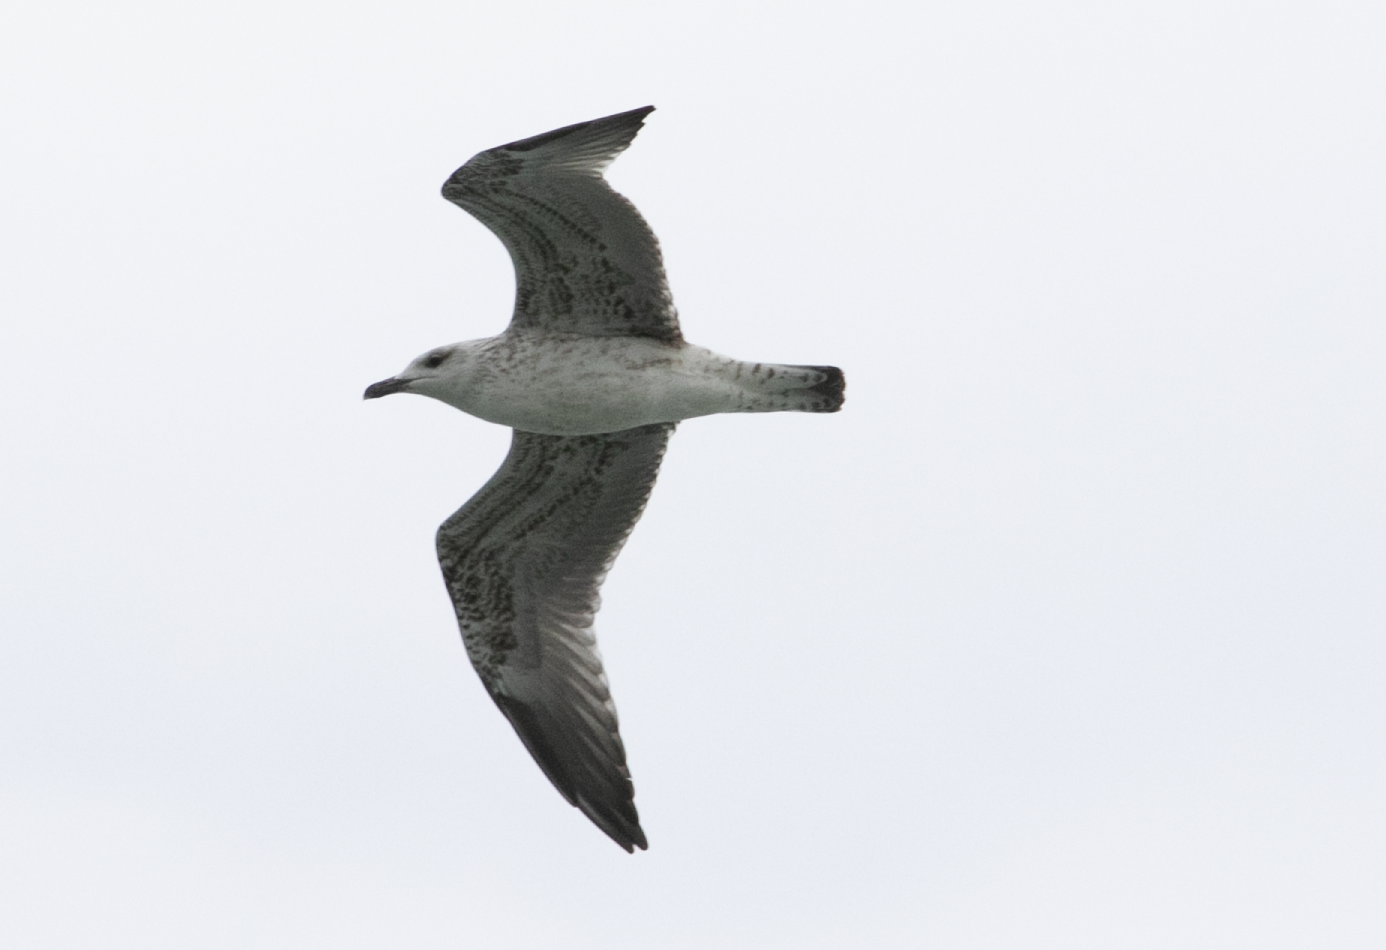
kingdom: Animalia
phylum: Chordata
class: Aves
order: Charadriiformes
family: Laridae
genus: Larus
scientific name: Larus michahellis
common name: Yellow-legged gull
